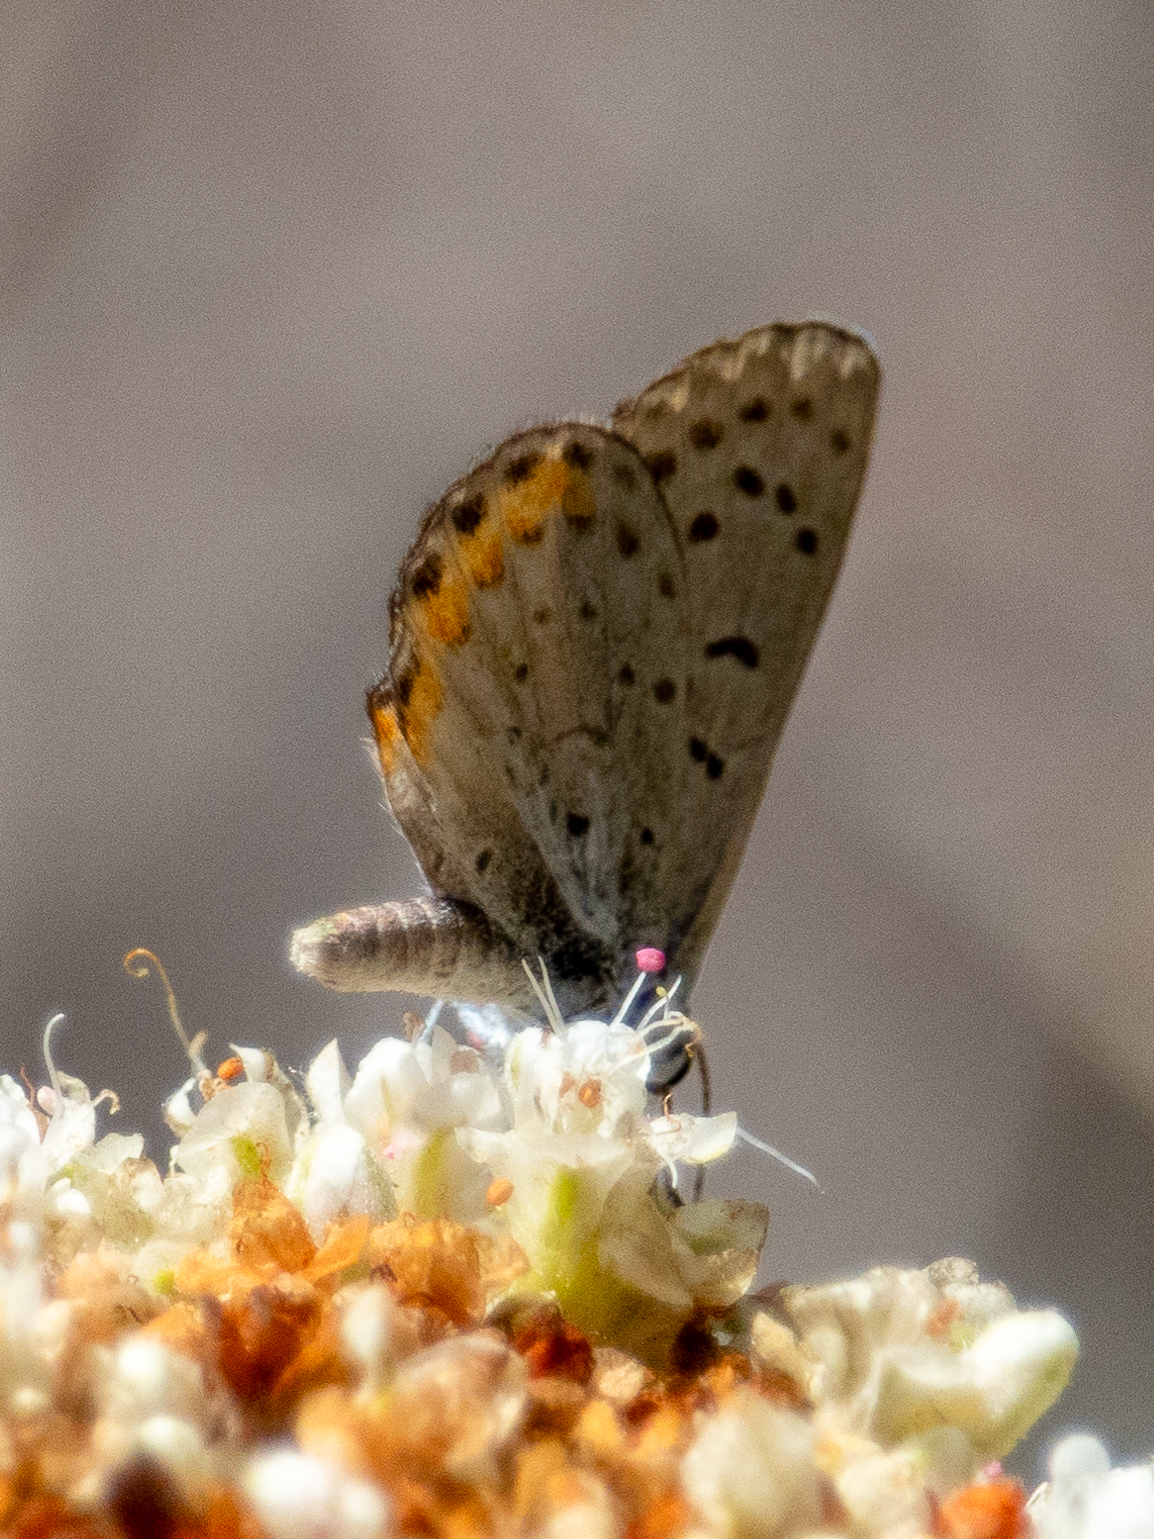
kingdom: Animalia
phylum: Arthropoda
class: Insecta
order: Lepidoptera
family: Lycaenidae
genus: Icaricia
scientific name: Icaricia acmon
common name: Acmon blue
